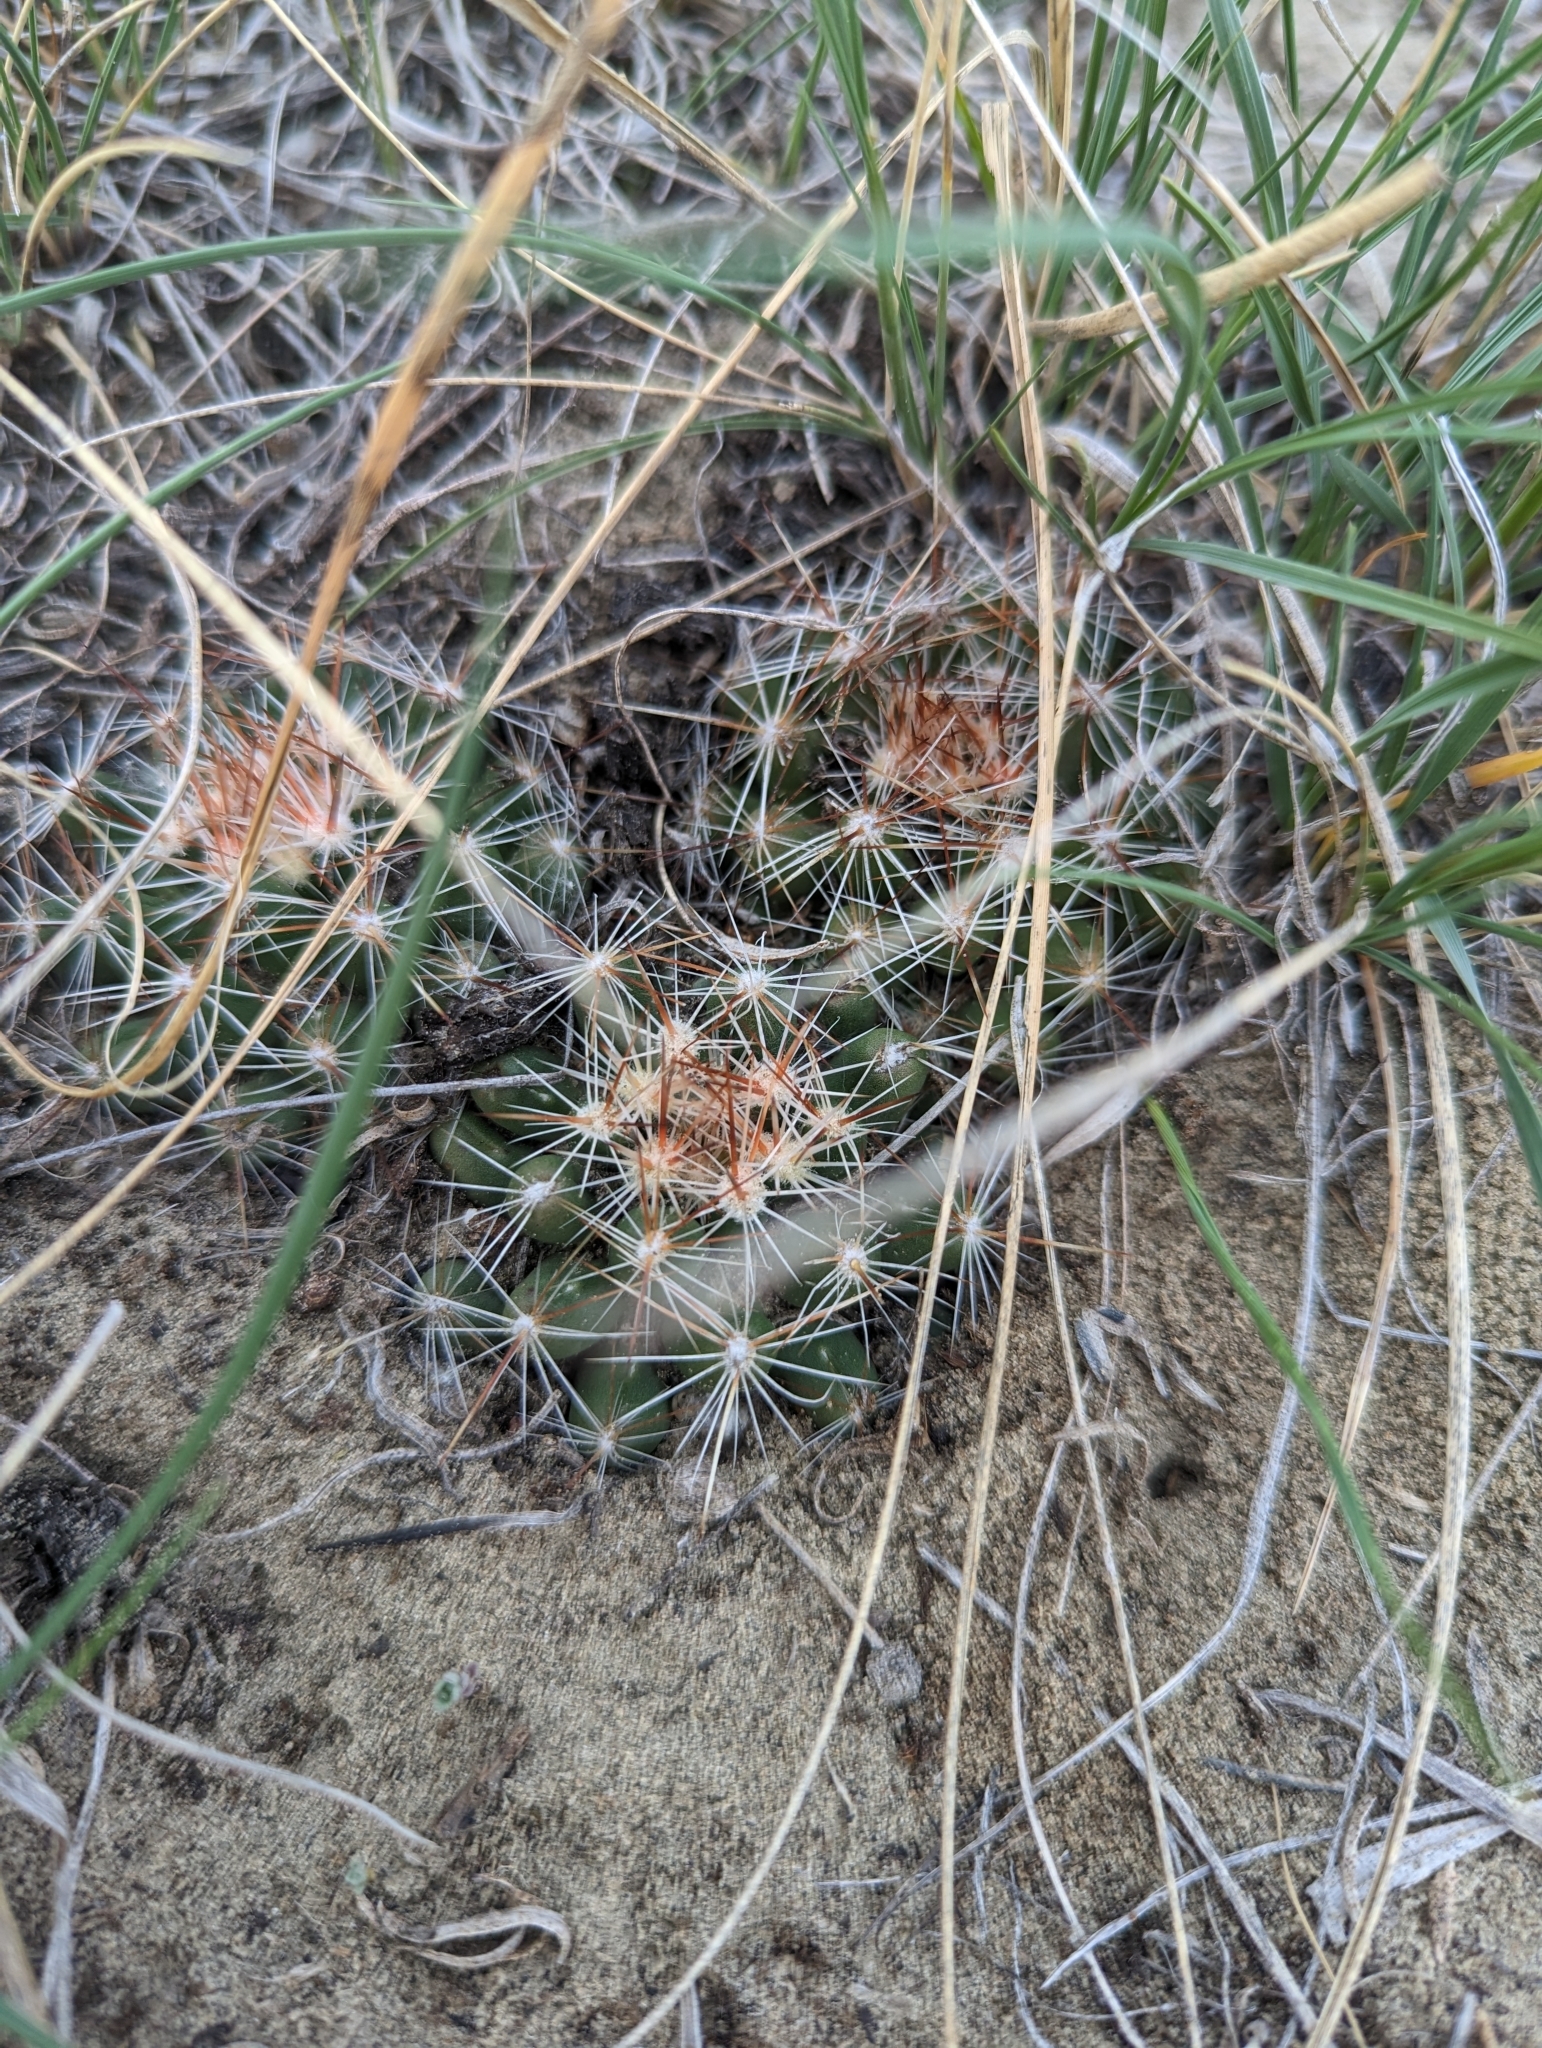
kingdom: Plantae
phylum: Tracheophyta
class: Magnoliopsida
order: Caryophyllales
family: Cactaceae
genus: Pelecyphora
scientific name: Pelecyphora vivipara
